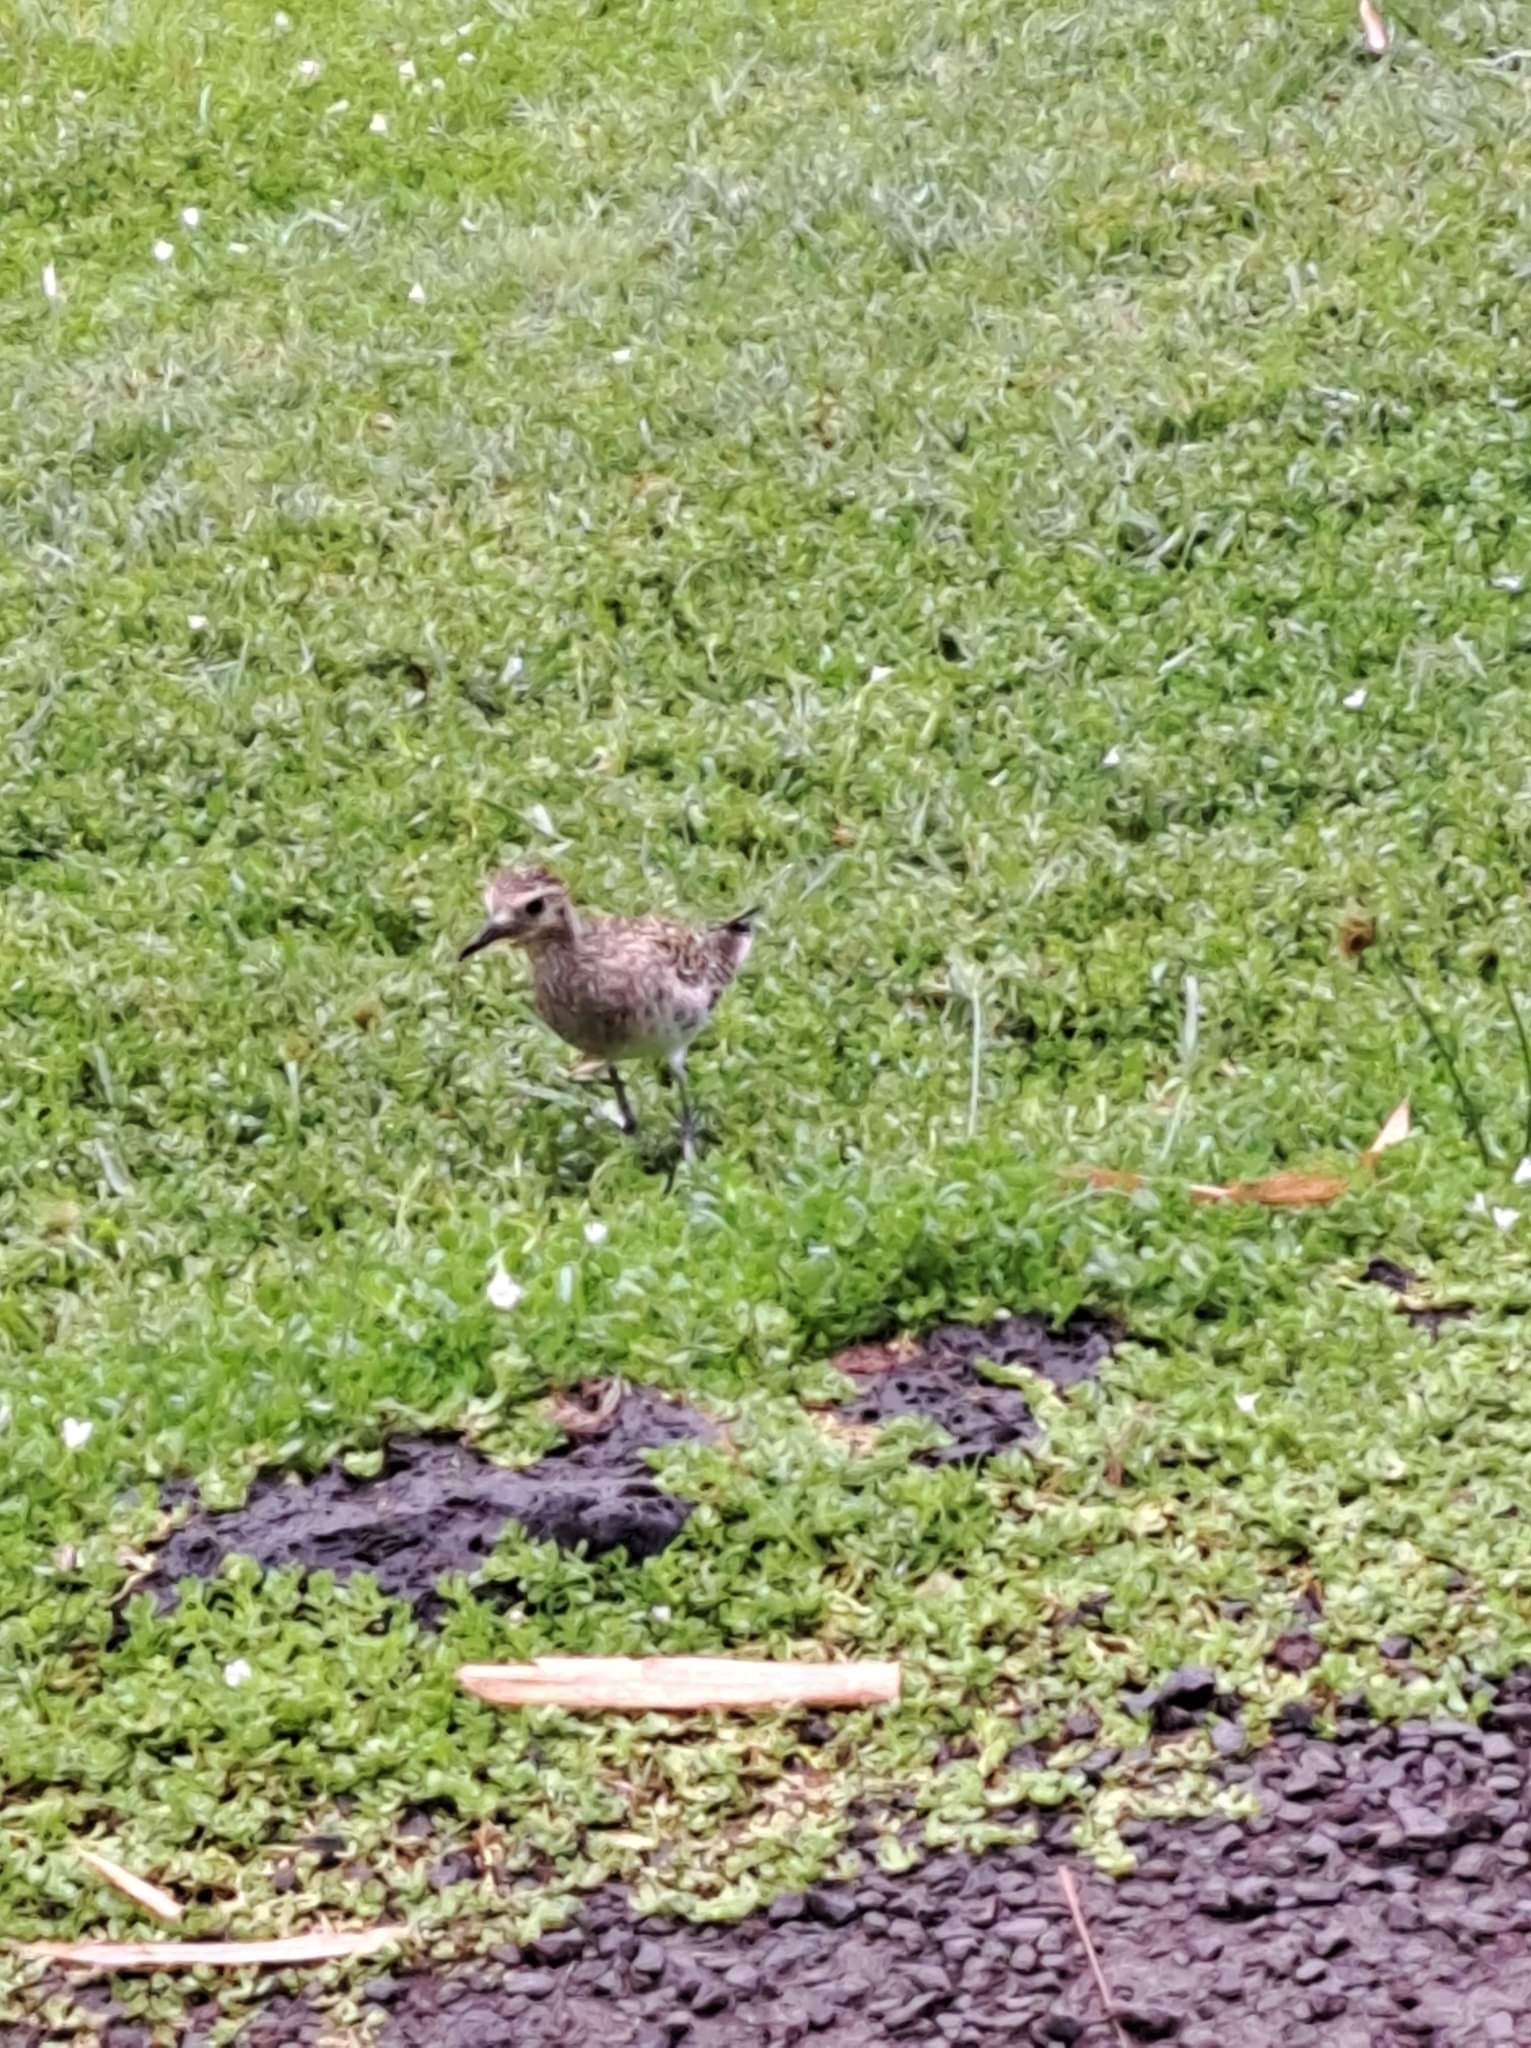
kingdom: Animalia
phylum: Chordata
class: Aves
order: Charadriiformes
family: Charadriidae
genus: Pluvialis
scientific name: Pluvialis fulva
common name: Pacific golden plover
